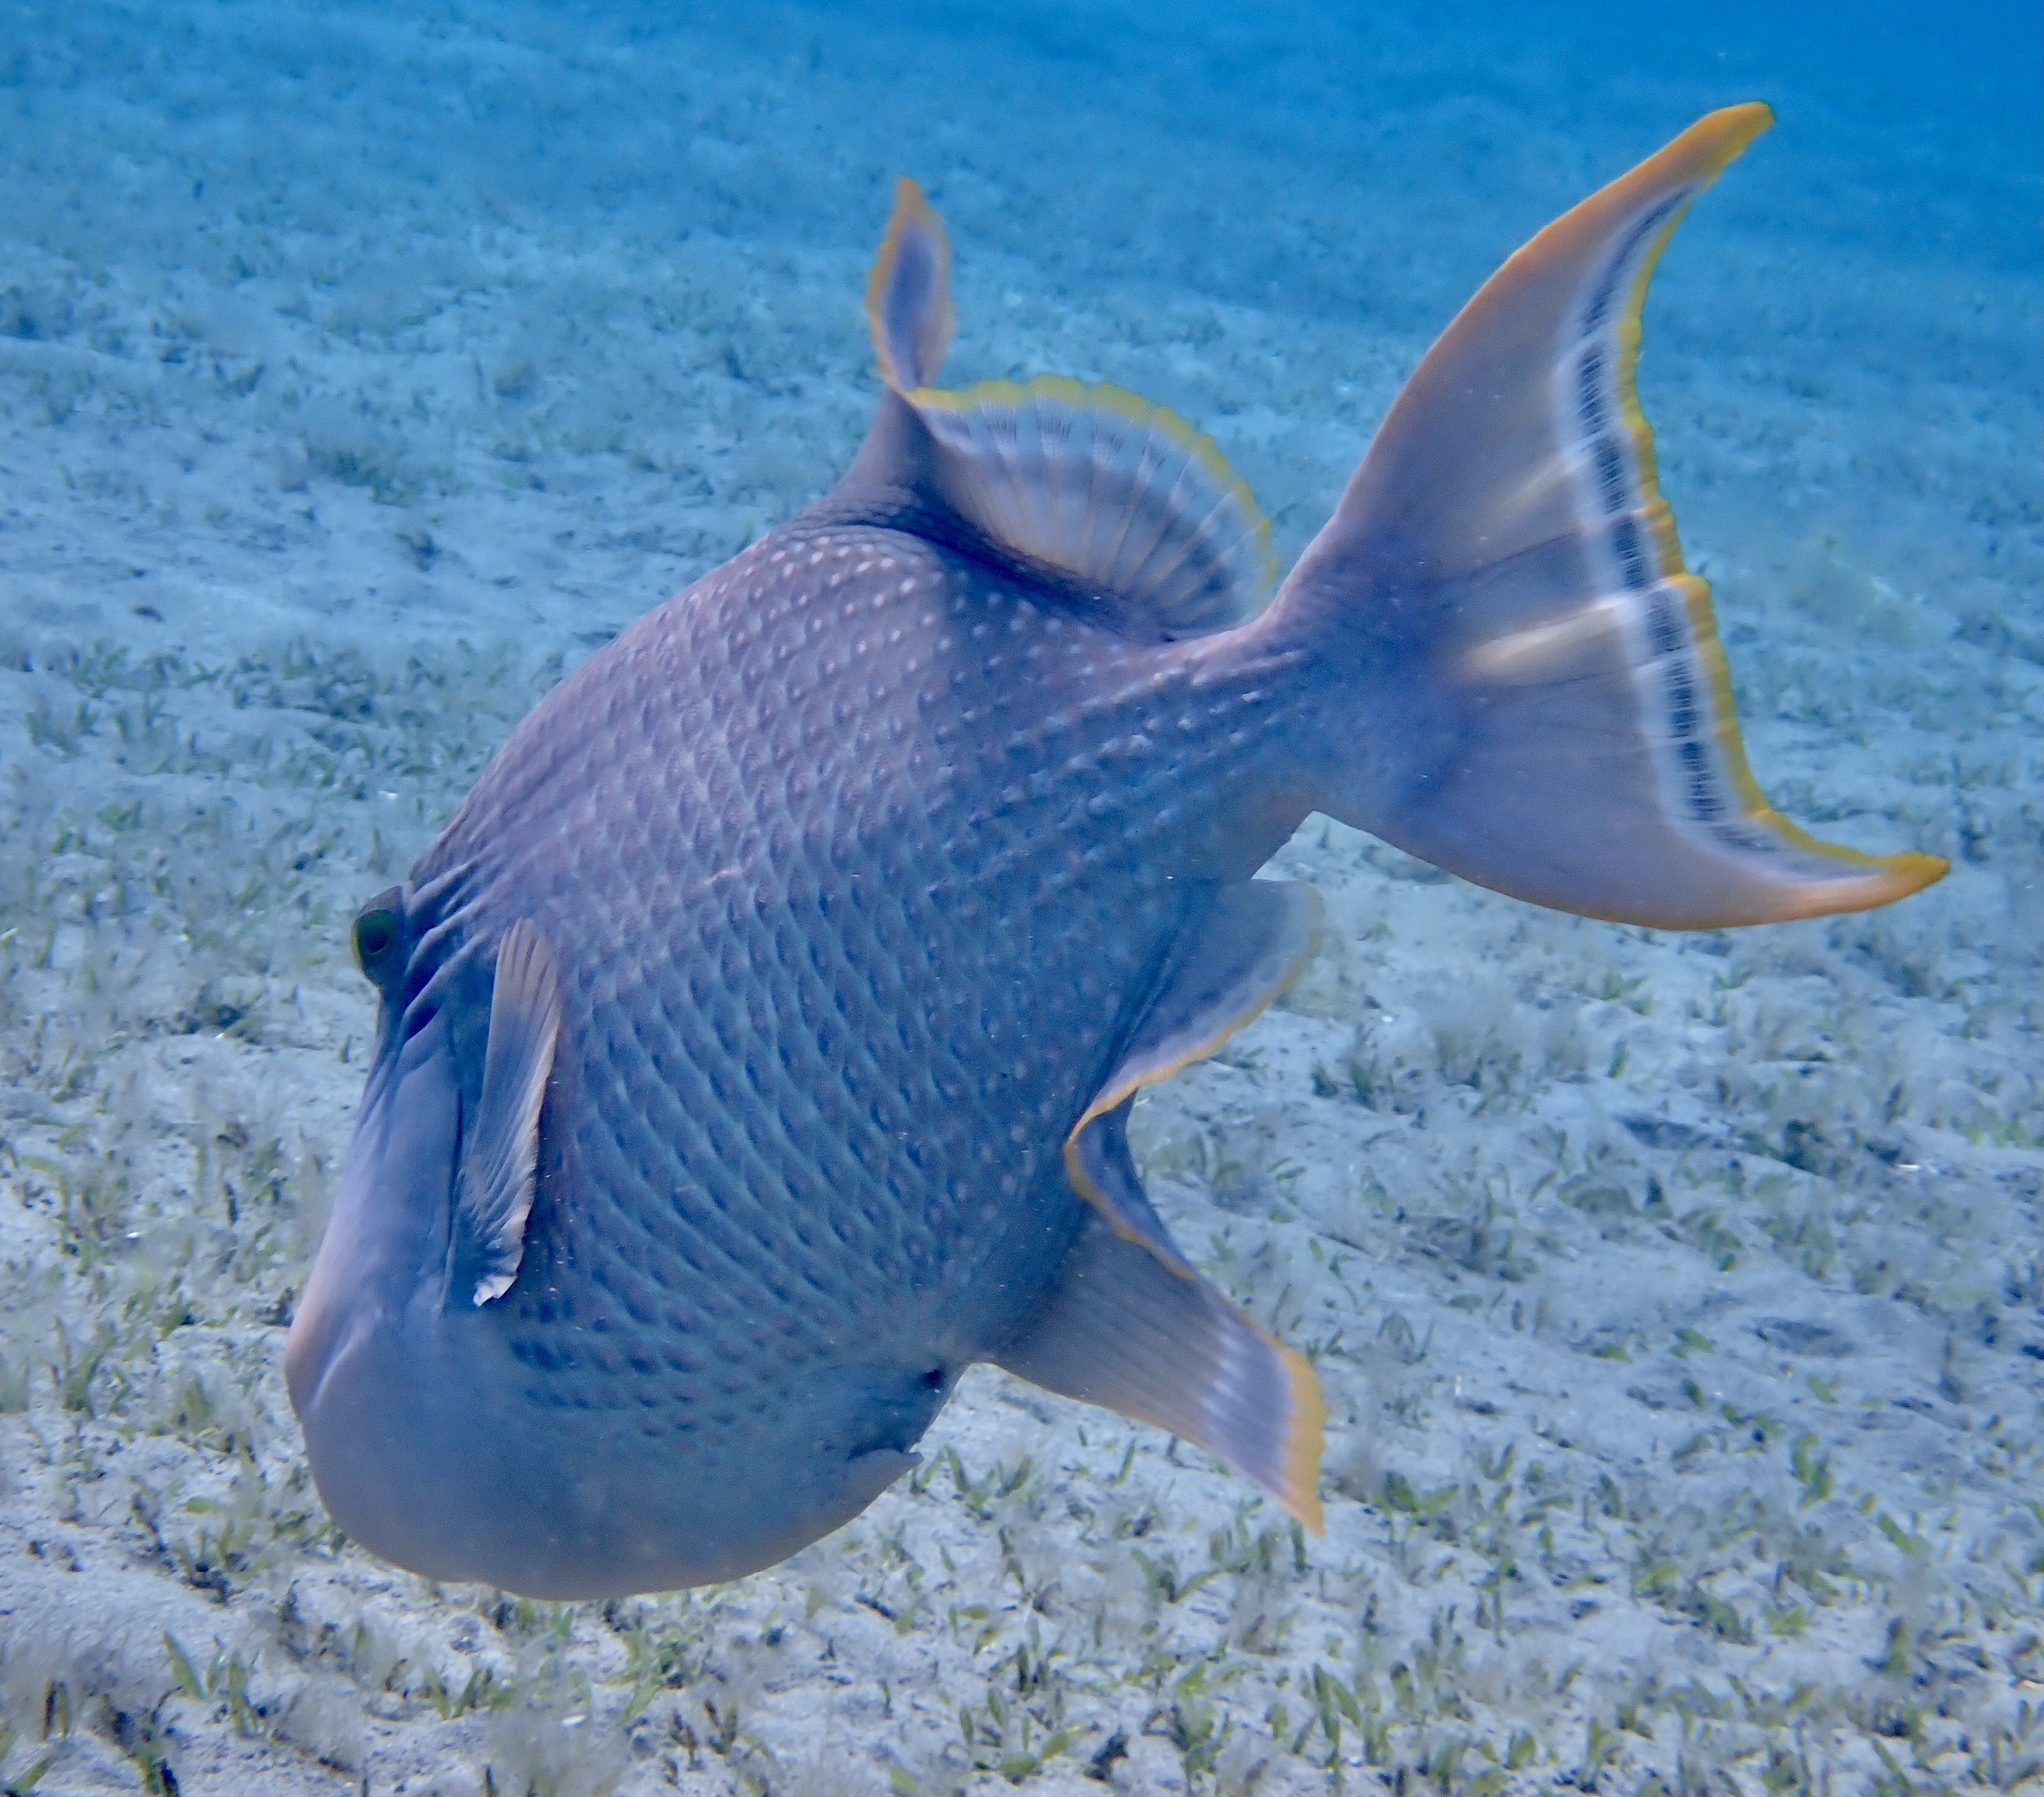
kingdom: Animalia
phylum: Chordata
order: Tetraodontiformes
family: Balistidae
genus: Pseudobalistes
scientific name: Pseudobalistes flavimarginatus
